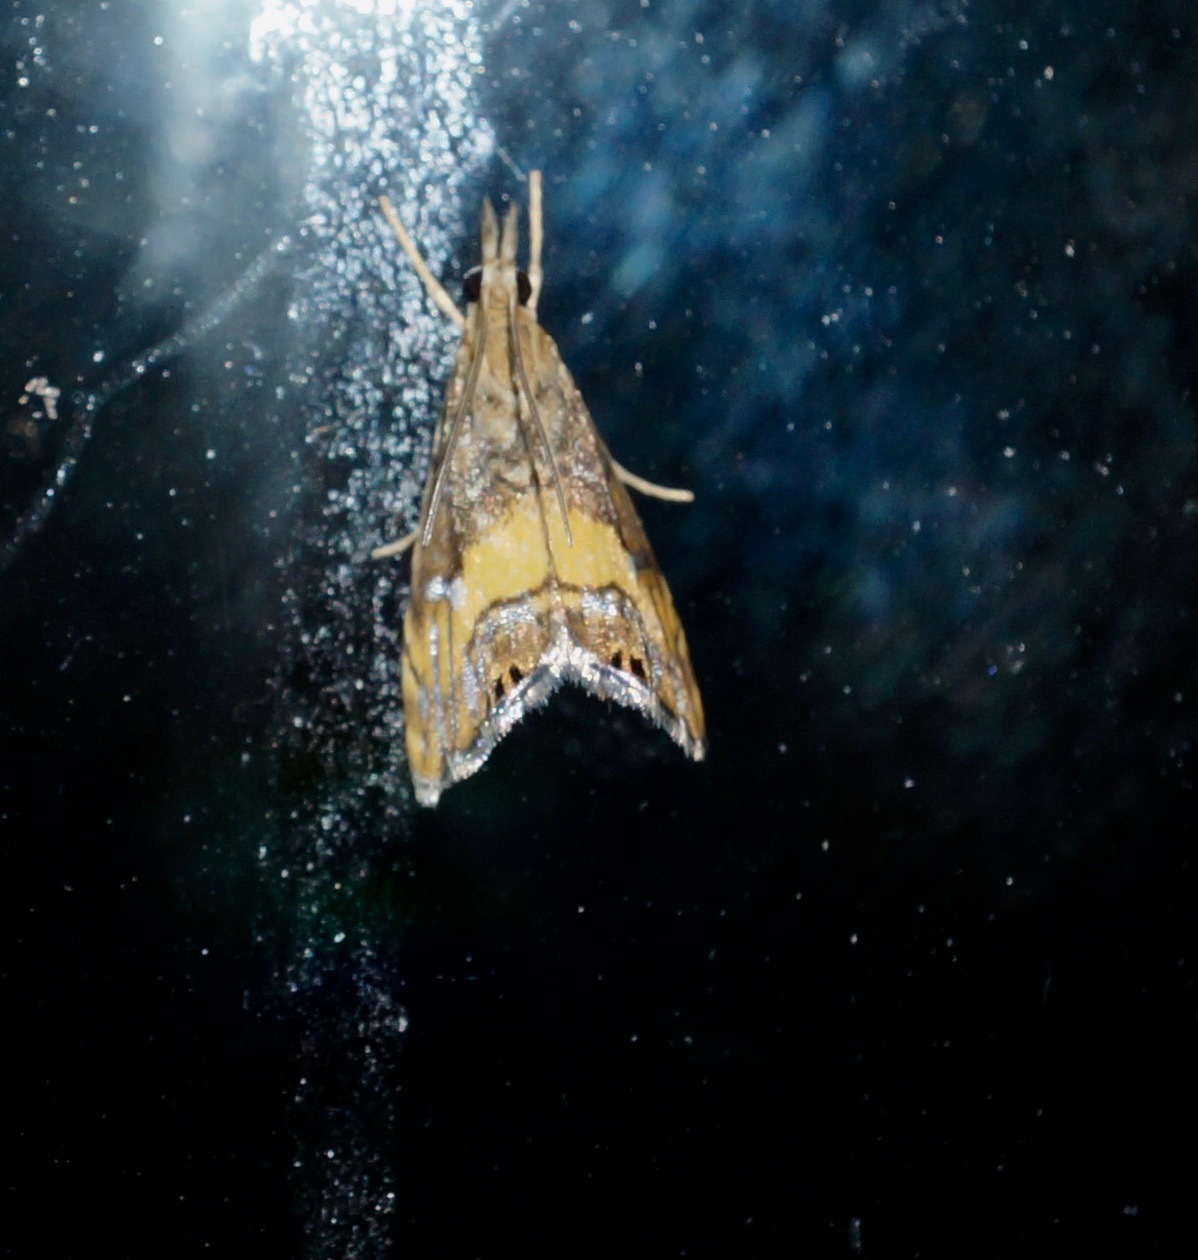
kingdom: Animalia
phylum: Arthropoda
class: Insecta
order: Lepidoptera
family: Crambidae
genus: Glaucocharis
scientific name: Glaucocharis chrysochyta
